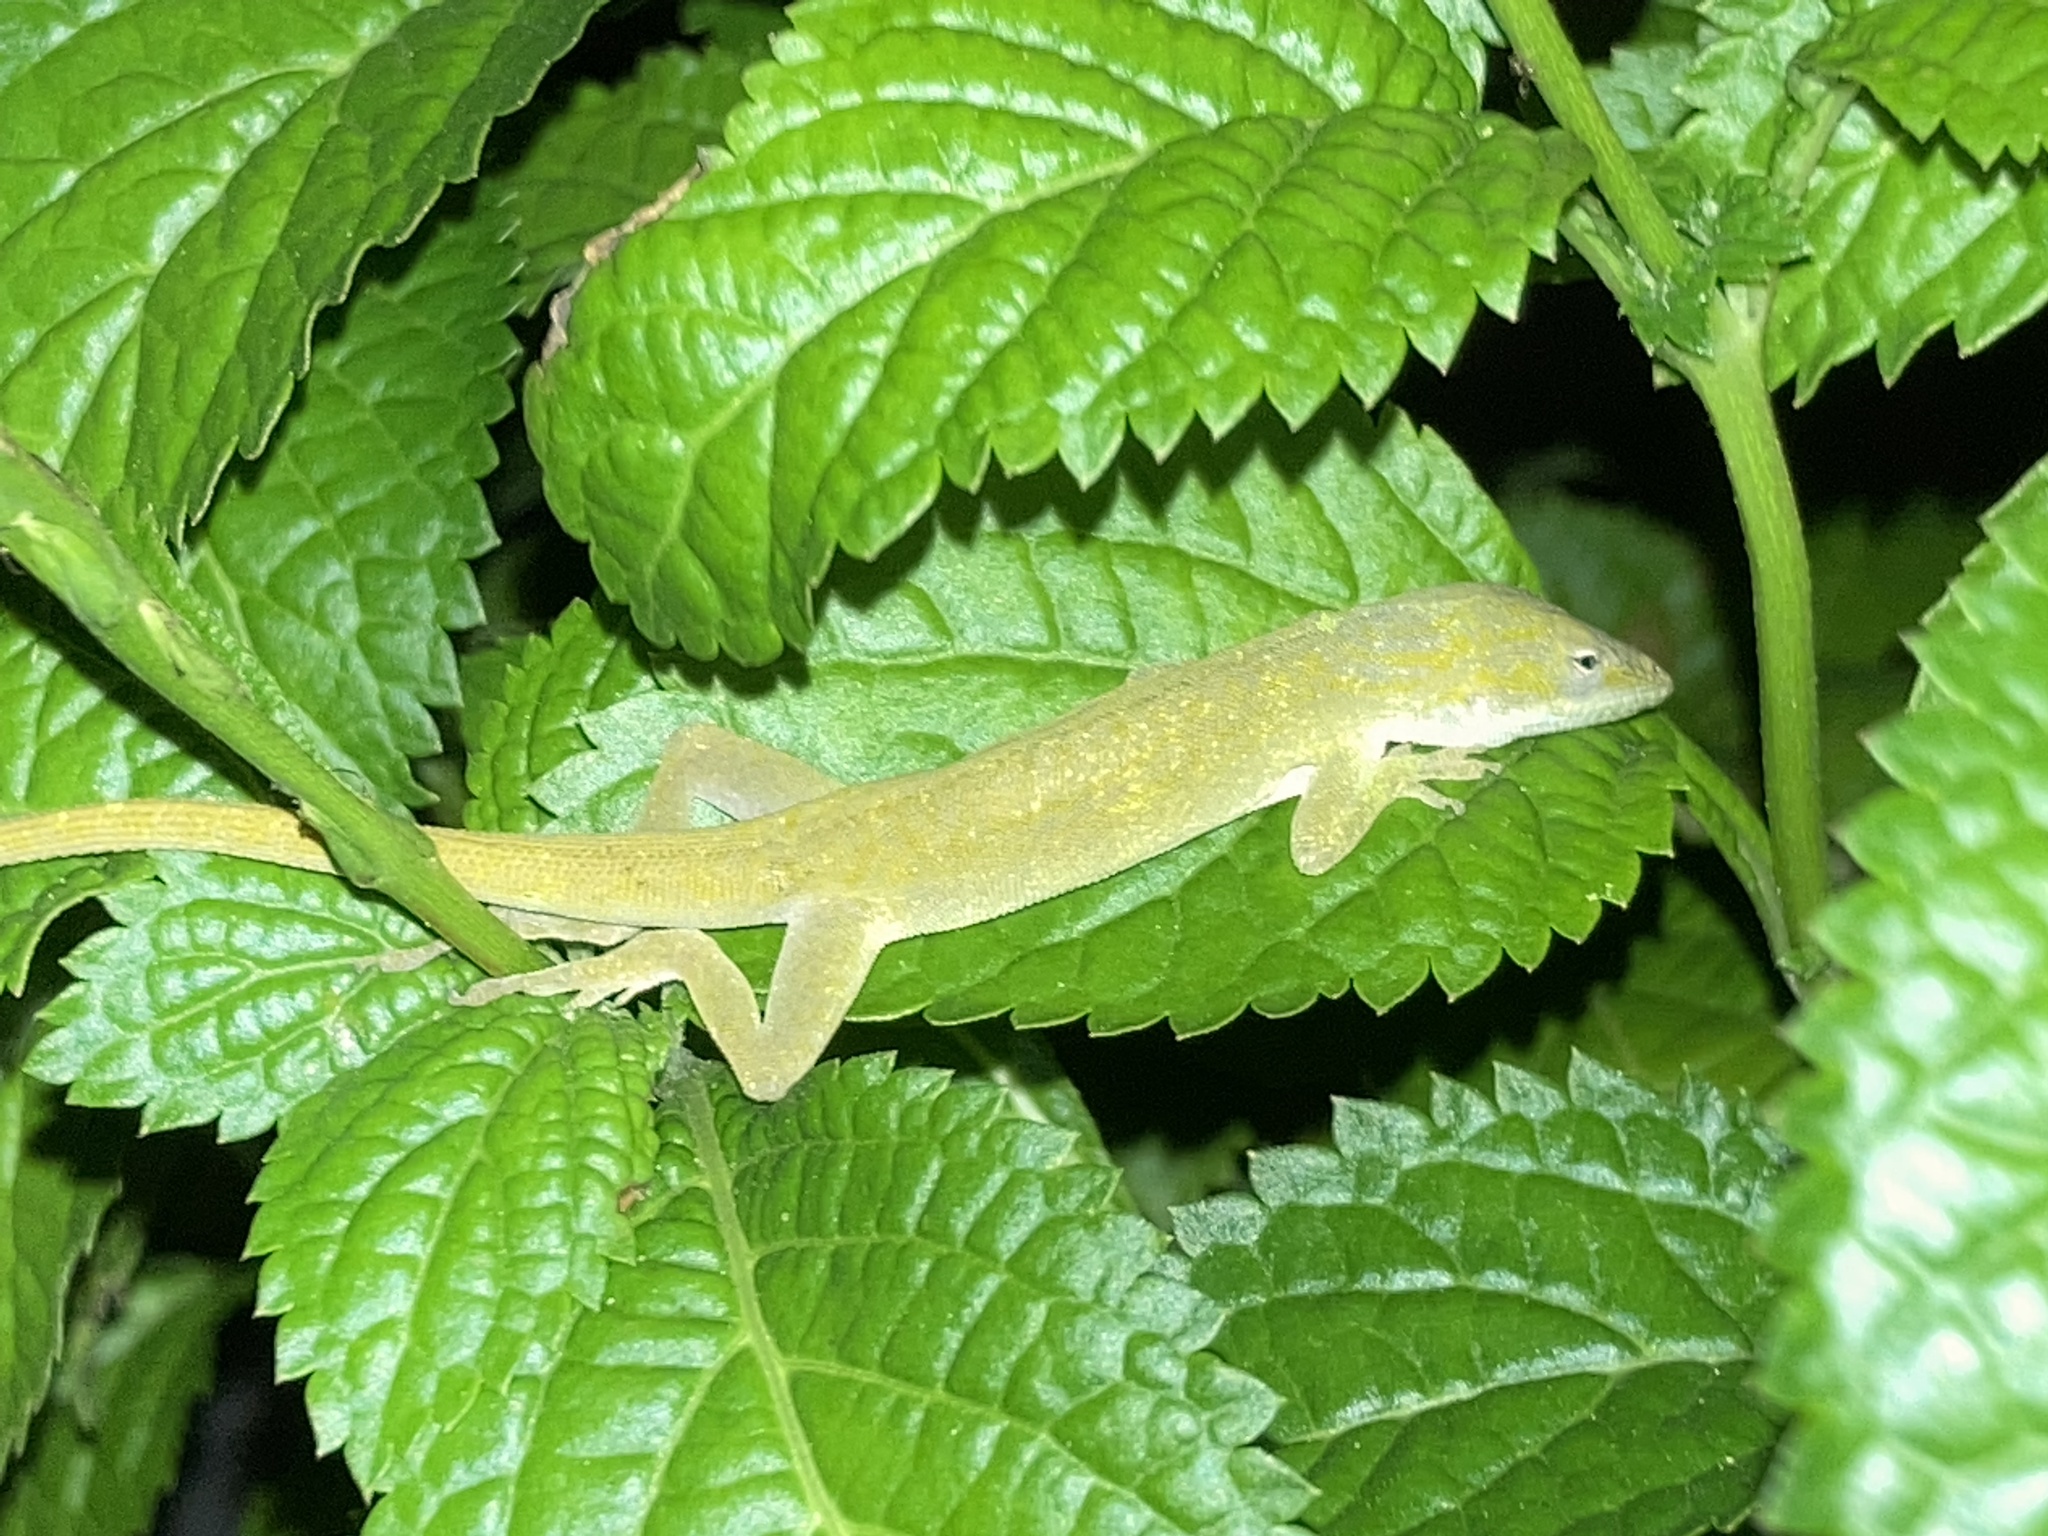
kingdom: Animalia
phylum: Chordata
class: Squamata
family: Dactyloidae
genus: Anolis
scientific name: Anolis carolinensis
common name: Green anole
